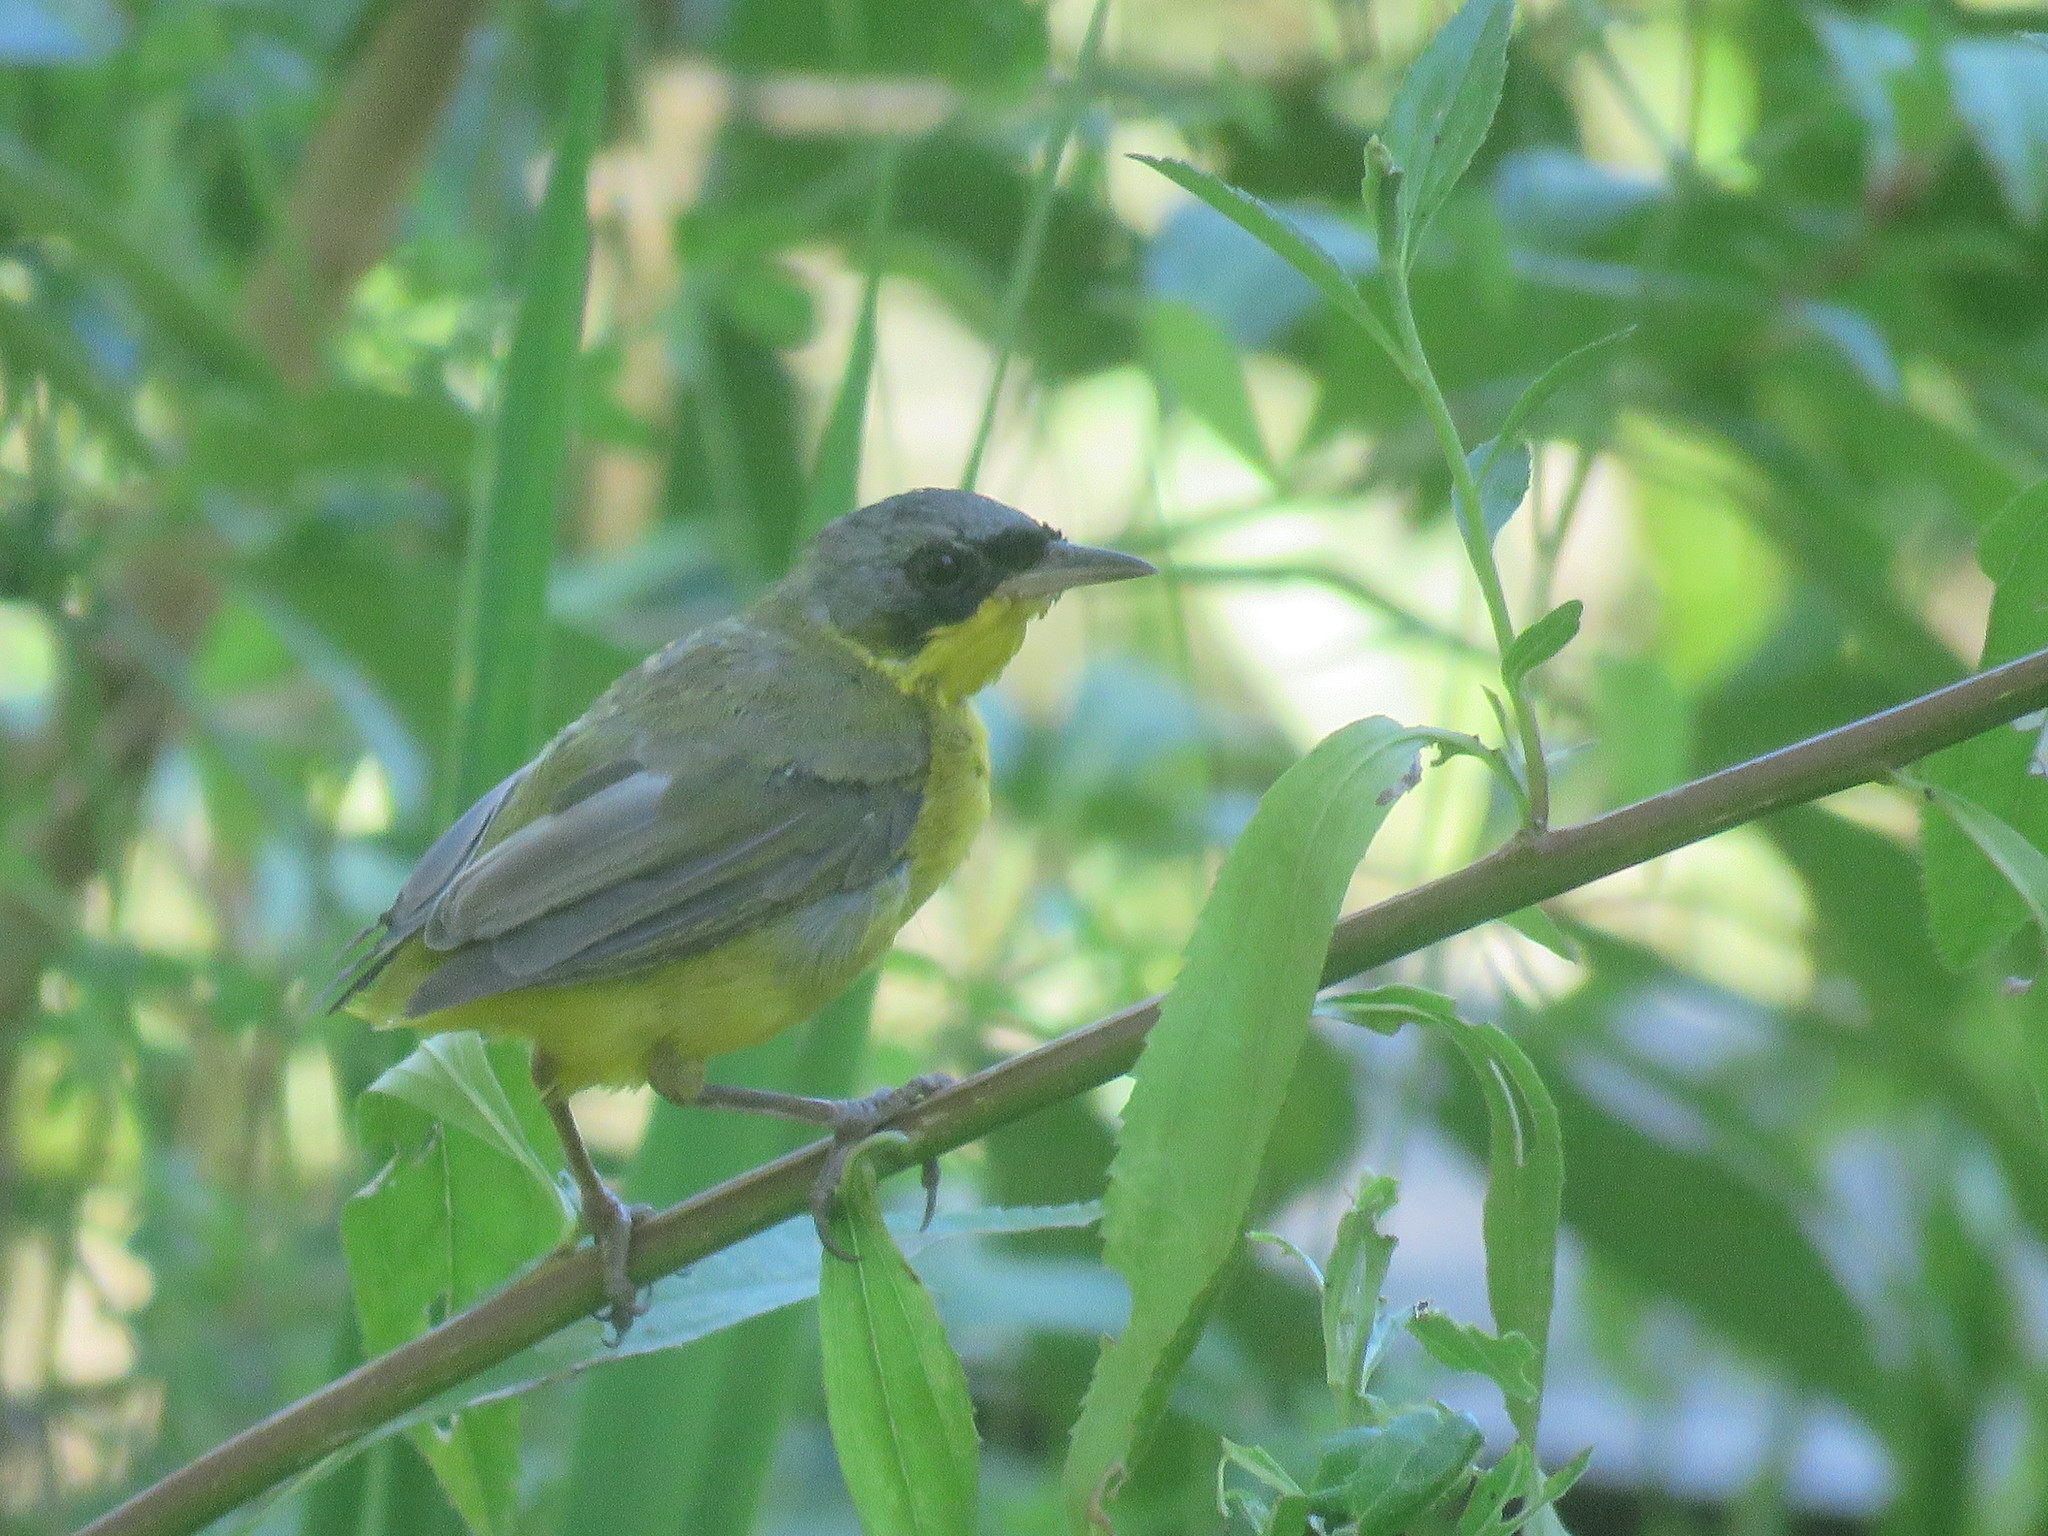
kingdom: Animalia
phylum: Chordata
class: Aves
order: Passeriformes
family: Parulidae
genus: Geothlypis
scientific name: Geothlypis velata
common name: Southern yellowthroat
